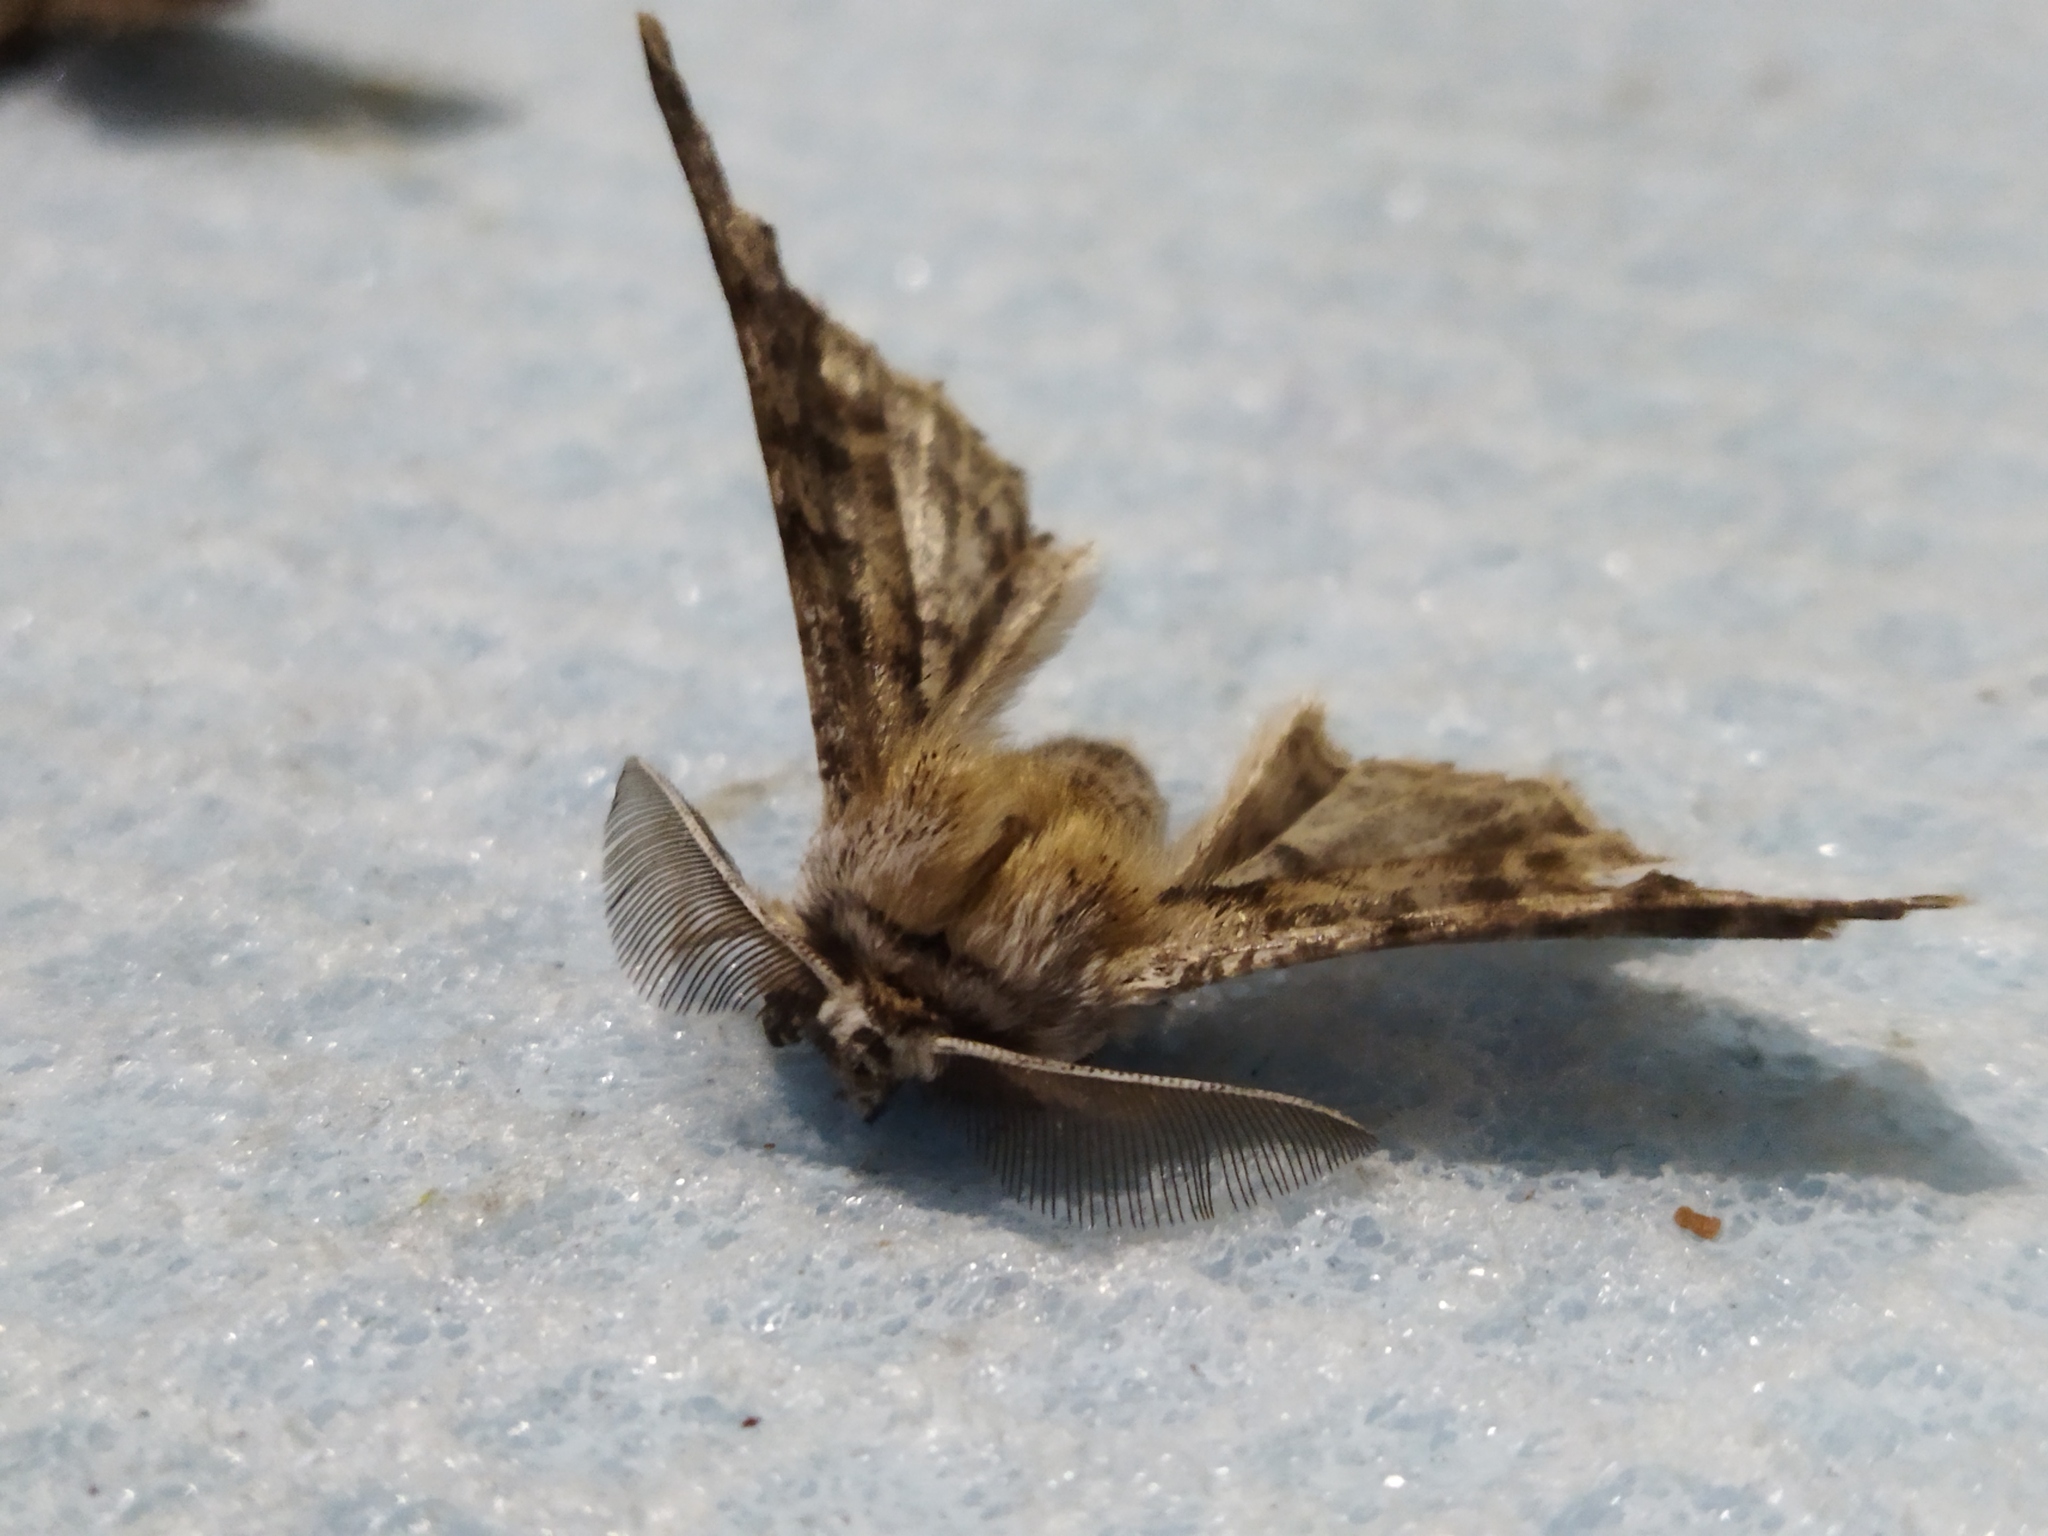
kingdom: Animalia
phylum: Arthropoda
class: Insecta
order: Lepidoptera
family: Geometridae
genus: Apochima
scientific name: Apochima flabellaria
